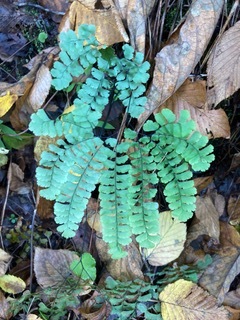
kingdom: Plantae
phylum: Tracheophyta
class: Polypodiopsida
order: Polypodiales
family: Pteridaceae
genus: Adiantum
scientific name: Adiantum pedatum
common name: Five-finger fern
